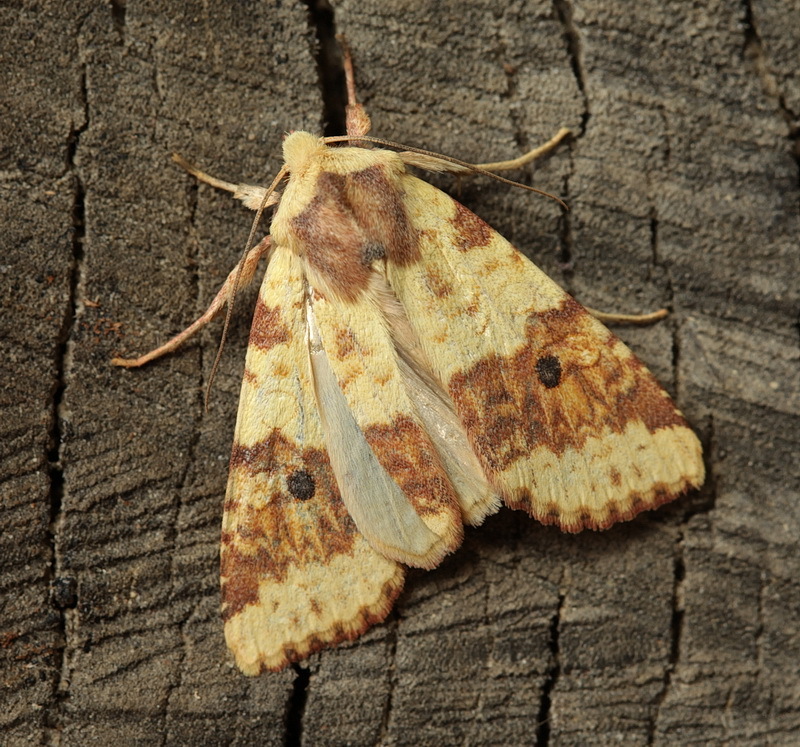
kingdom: Animalia
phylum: Arthropoda
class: Insecta
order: Lepidoptera
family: Noctuidae
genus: Xanthia
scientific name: Xanthia tunicata
